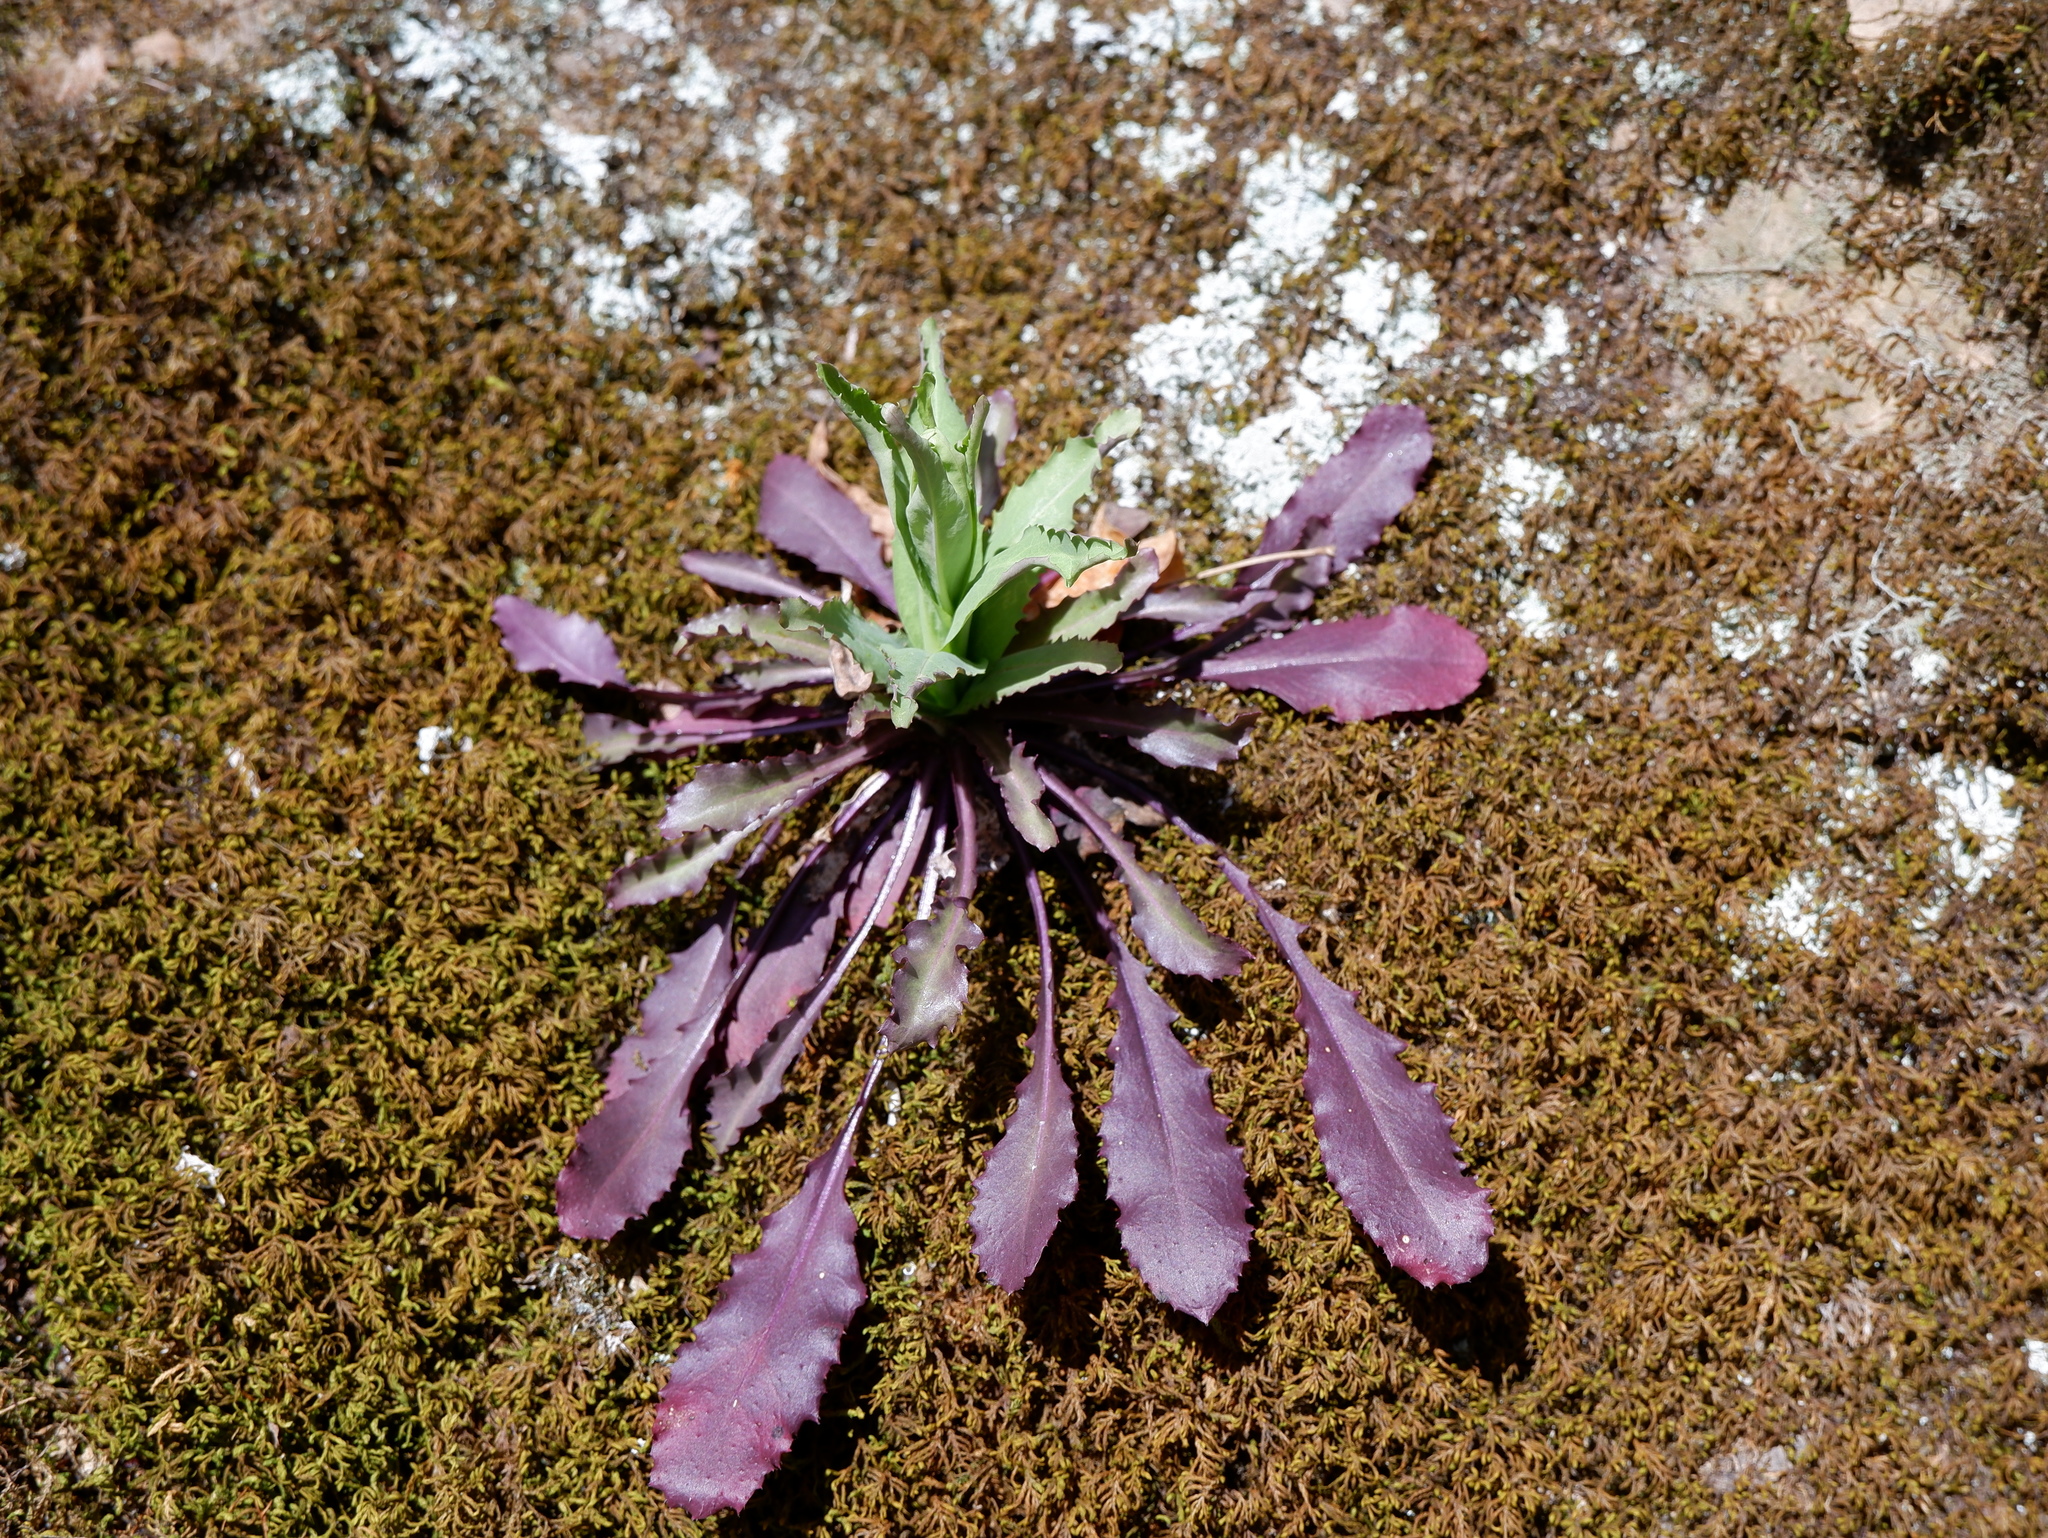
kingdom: Plantae
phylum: Tracheophyta
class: Magnoliopsida
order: Brassicales
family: Brassicaceae
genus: Borodinia
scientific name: Borodinia laevigata
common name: Smooth rockcress
